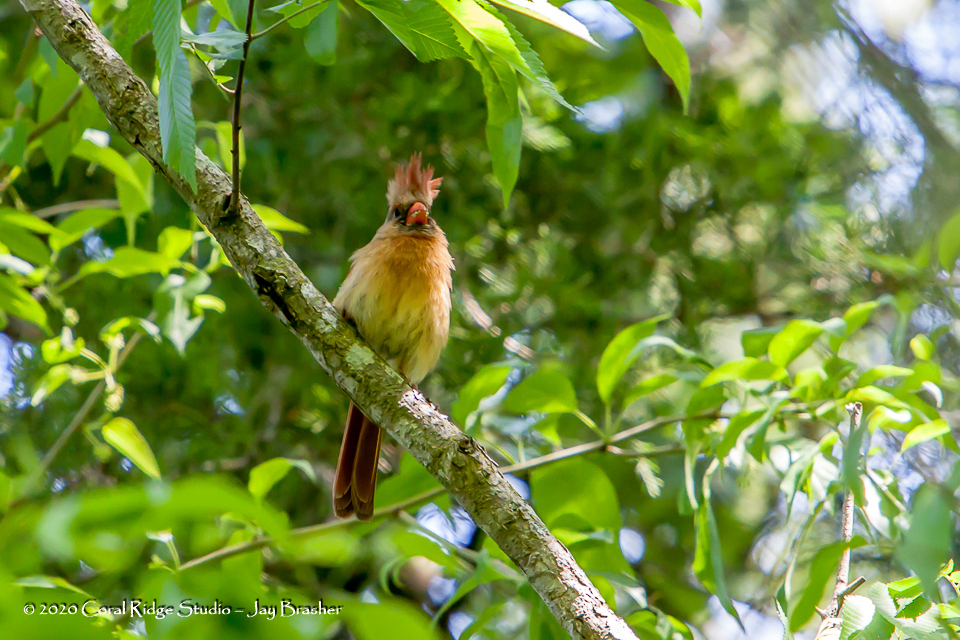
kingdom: Animalia
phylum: Chordata
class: Aves
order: Passeriformes
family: Cardinalidae
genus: Cardinalis
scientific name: Cardinalis cardinalis
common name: Northern cardinal
